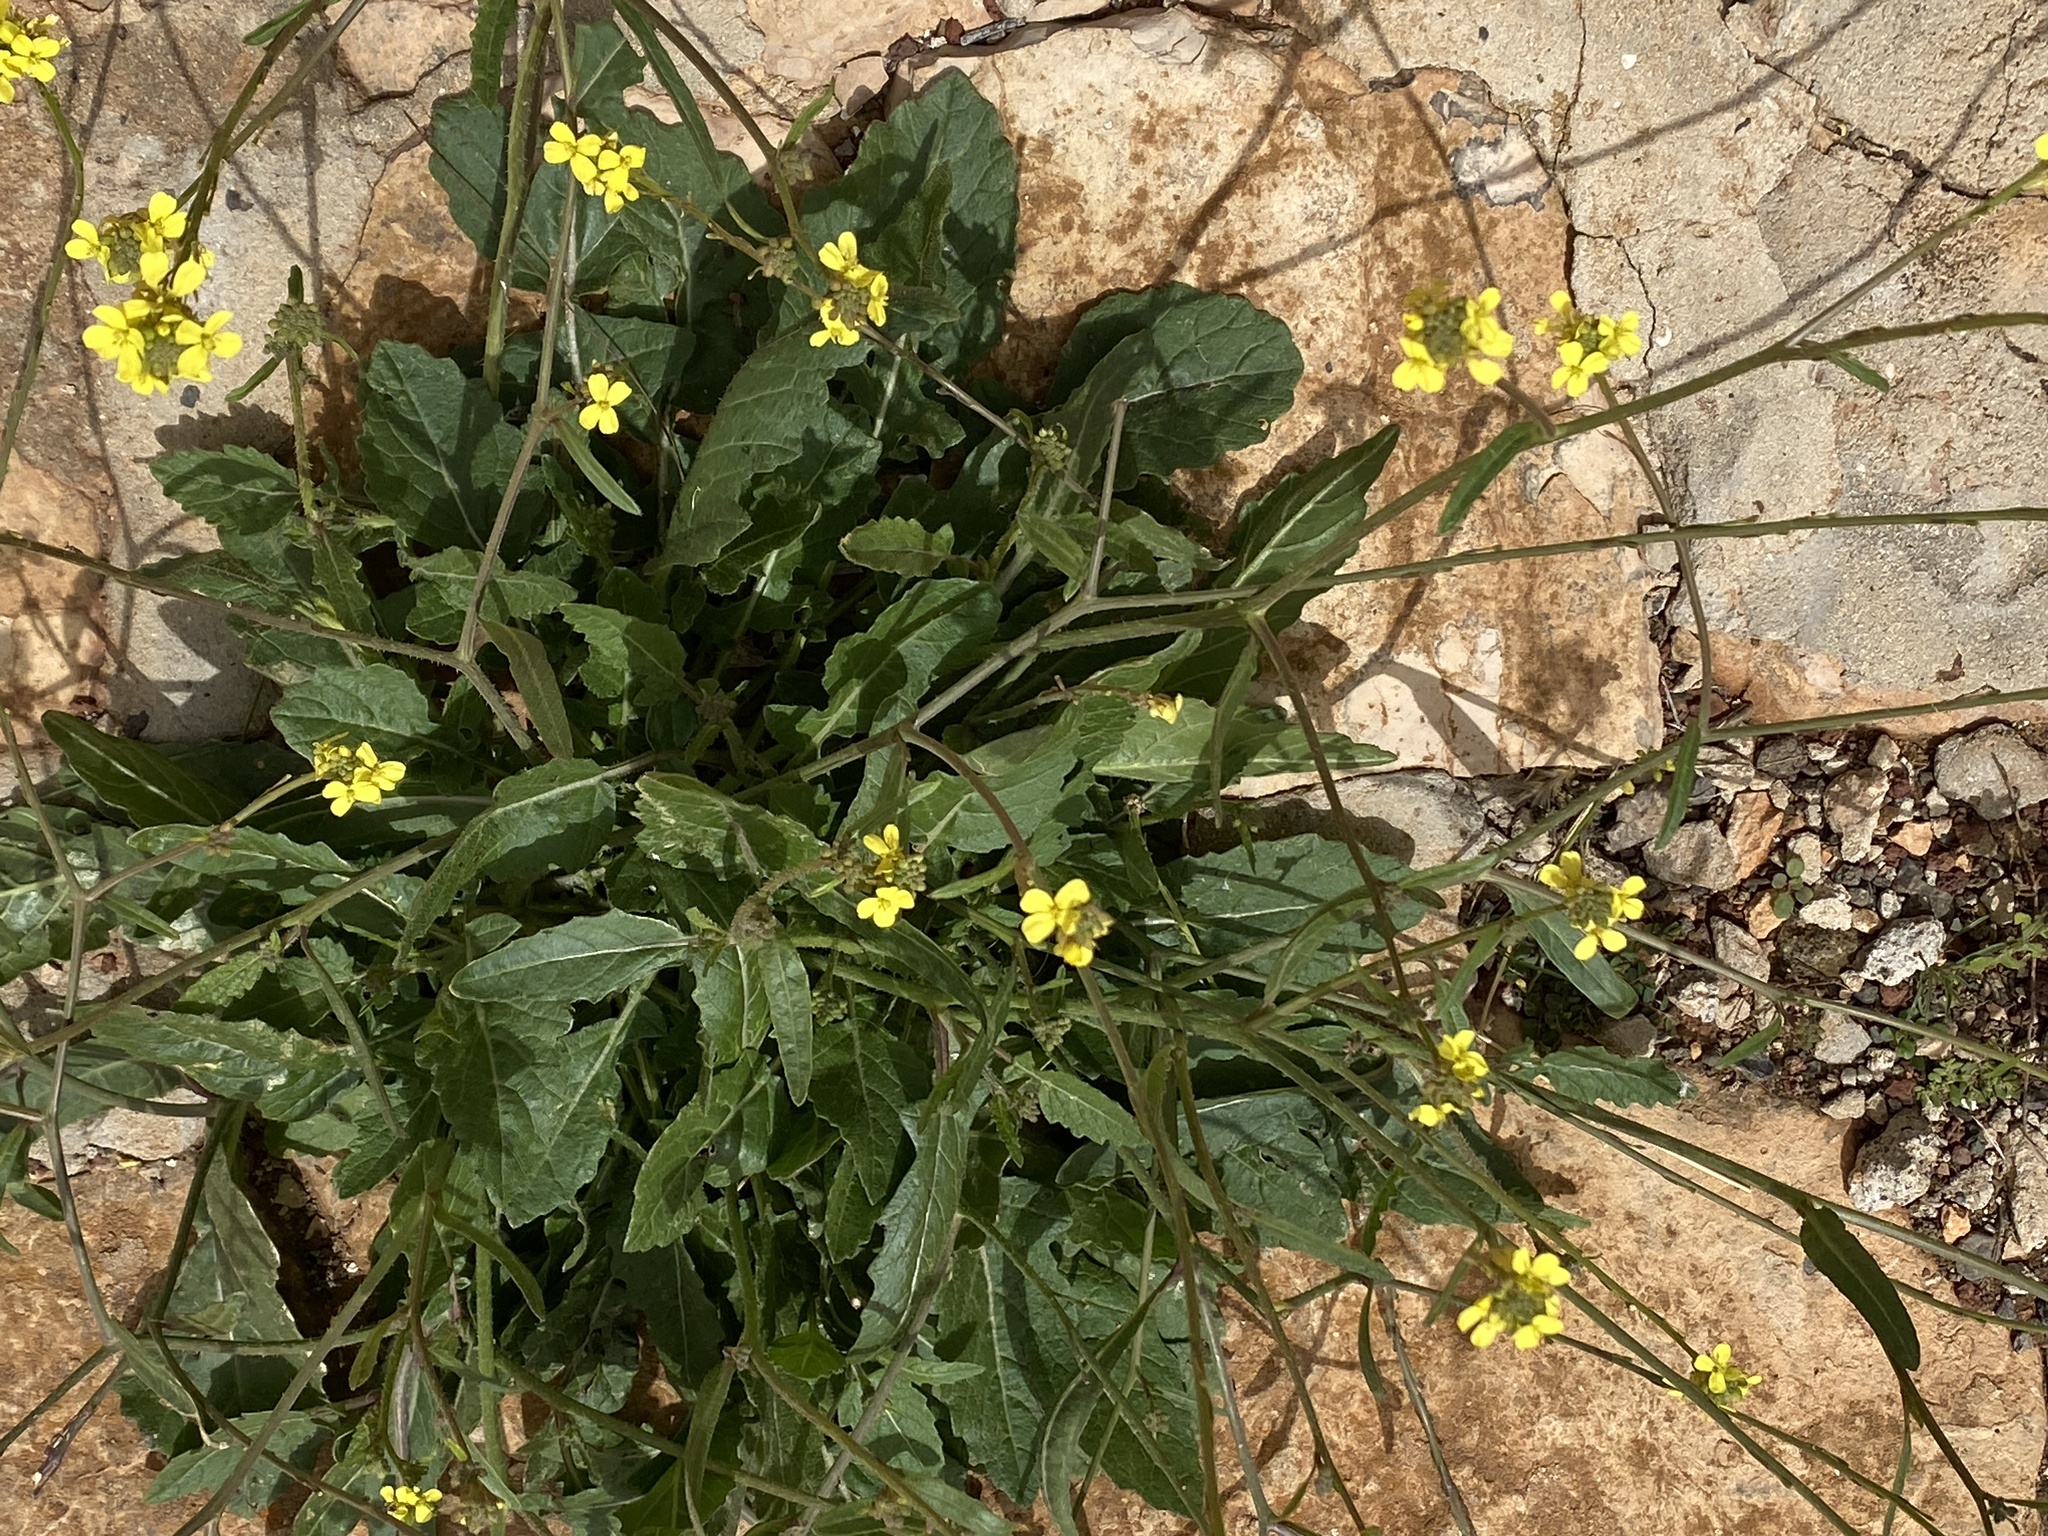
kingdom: Plantae
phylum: Tracheophyta
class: Magnoliopsida
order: Brassicales
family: Brassicaceae
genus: Hirschfeldia
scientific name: Hirschfeldia incana
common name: Hoary mustard
